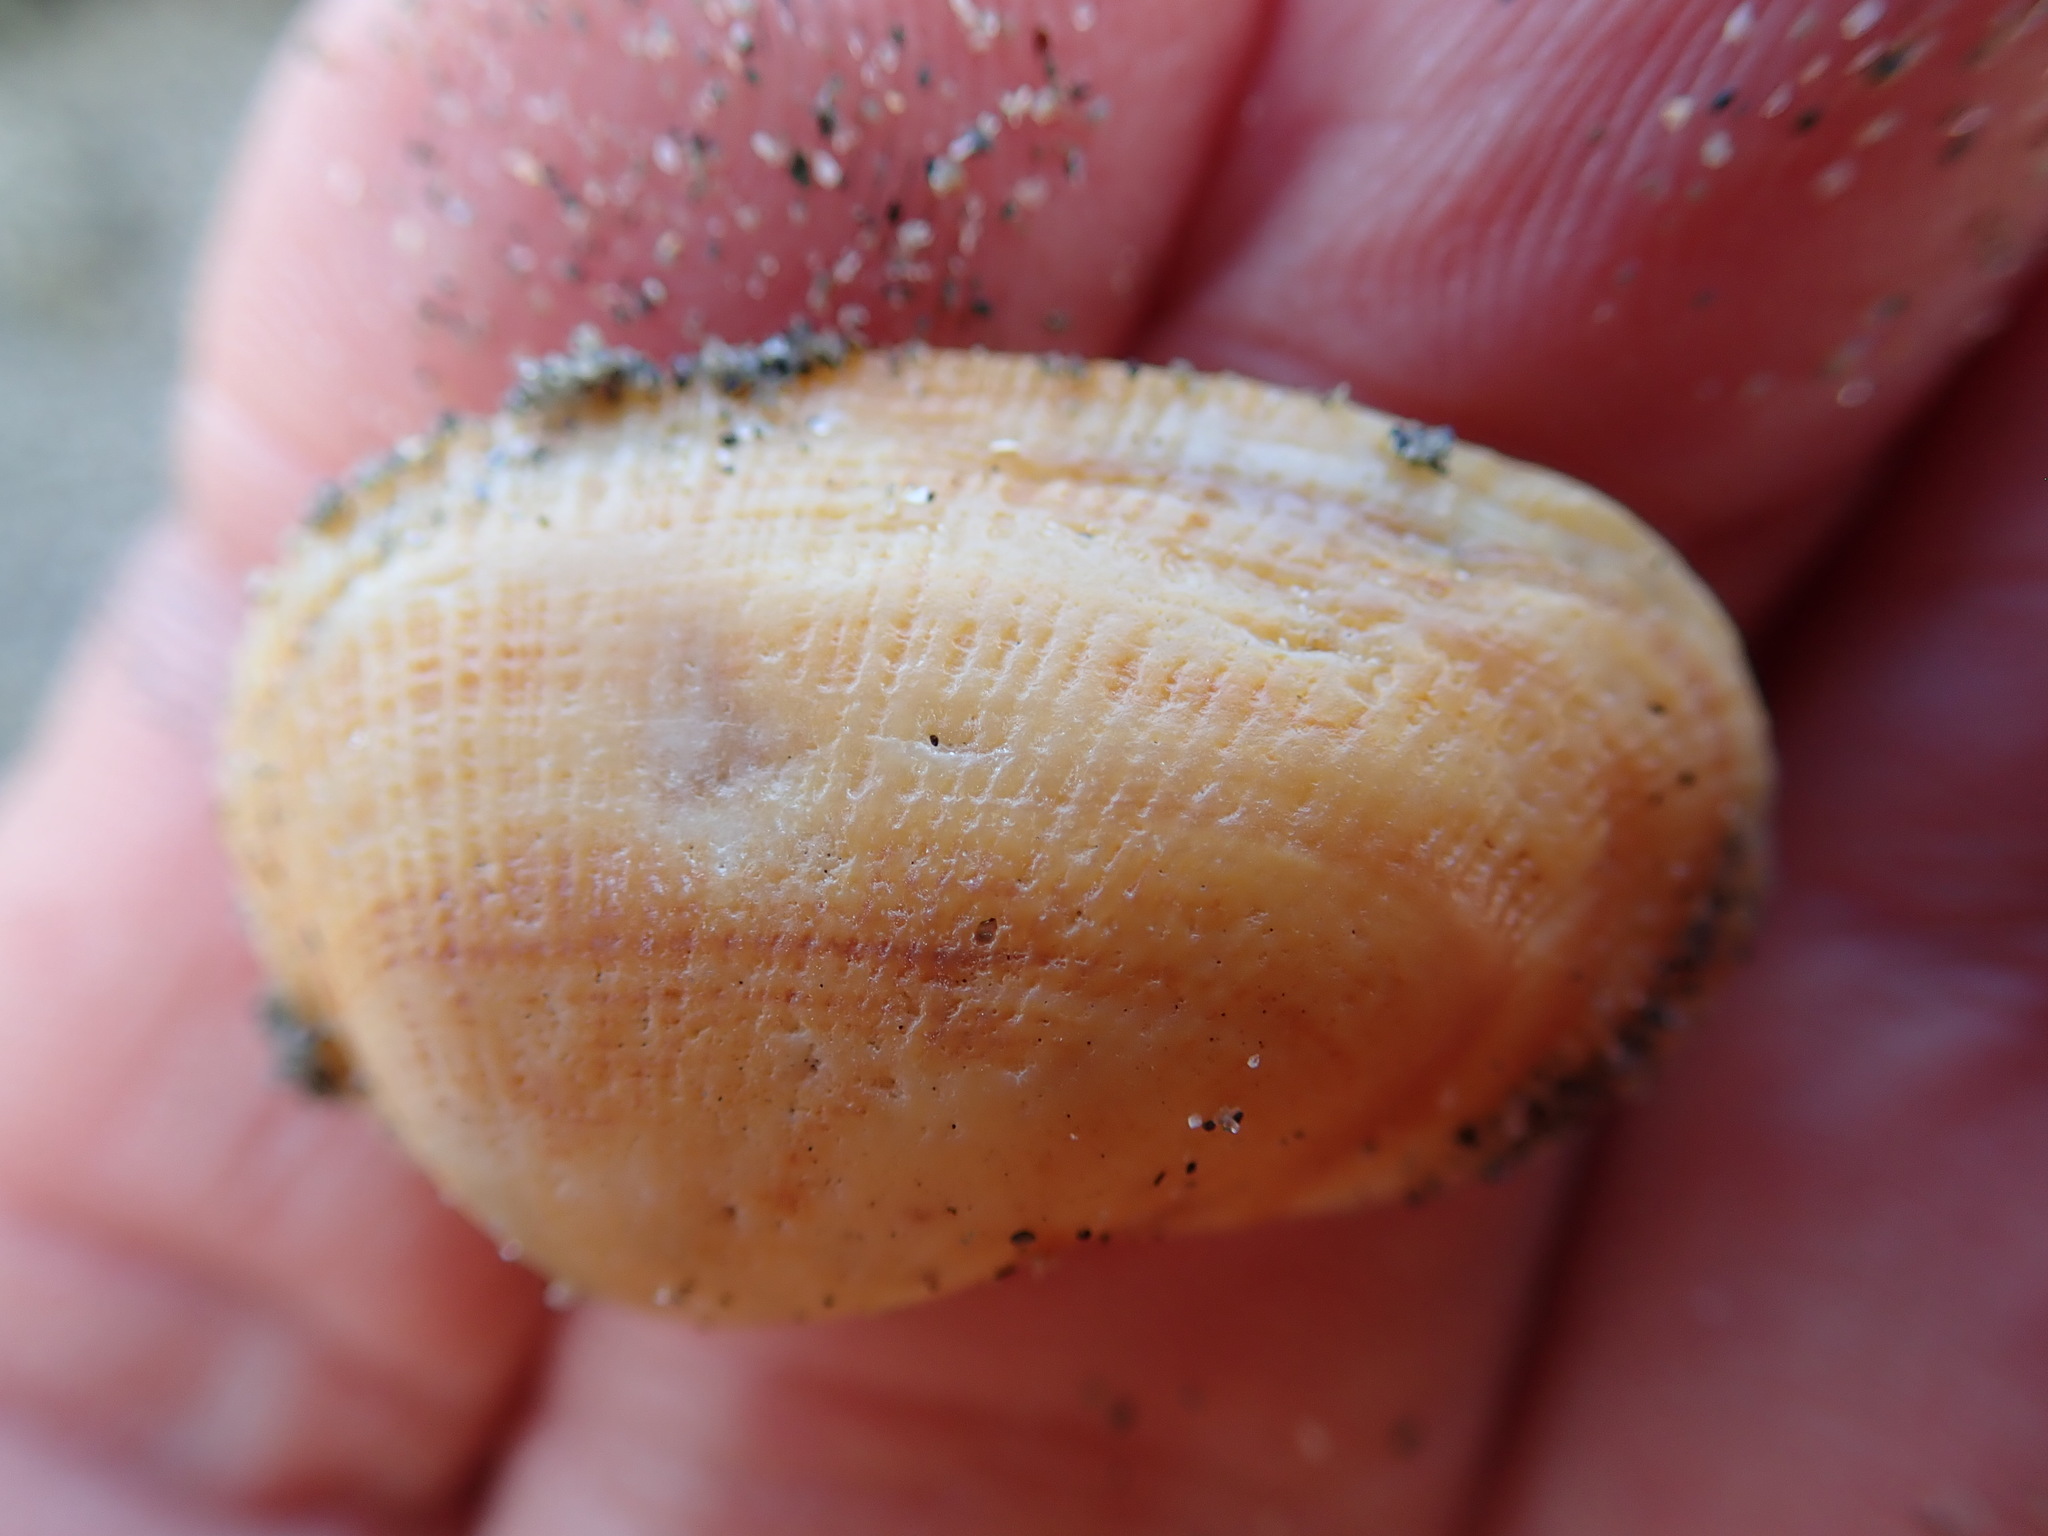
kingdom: Animalia
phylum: Mollusca
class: Bivalvia
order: Arcida
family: Arcidae
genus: Barbatia
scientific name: Barbatia novaezealandiae
